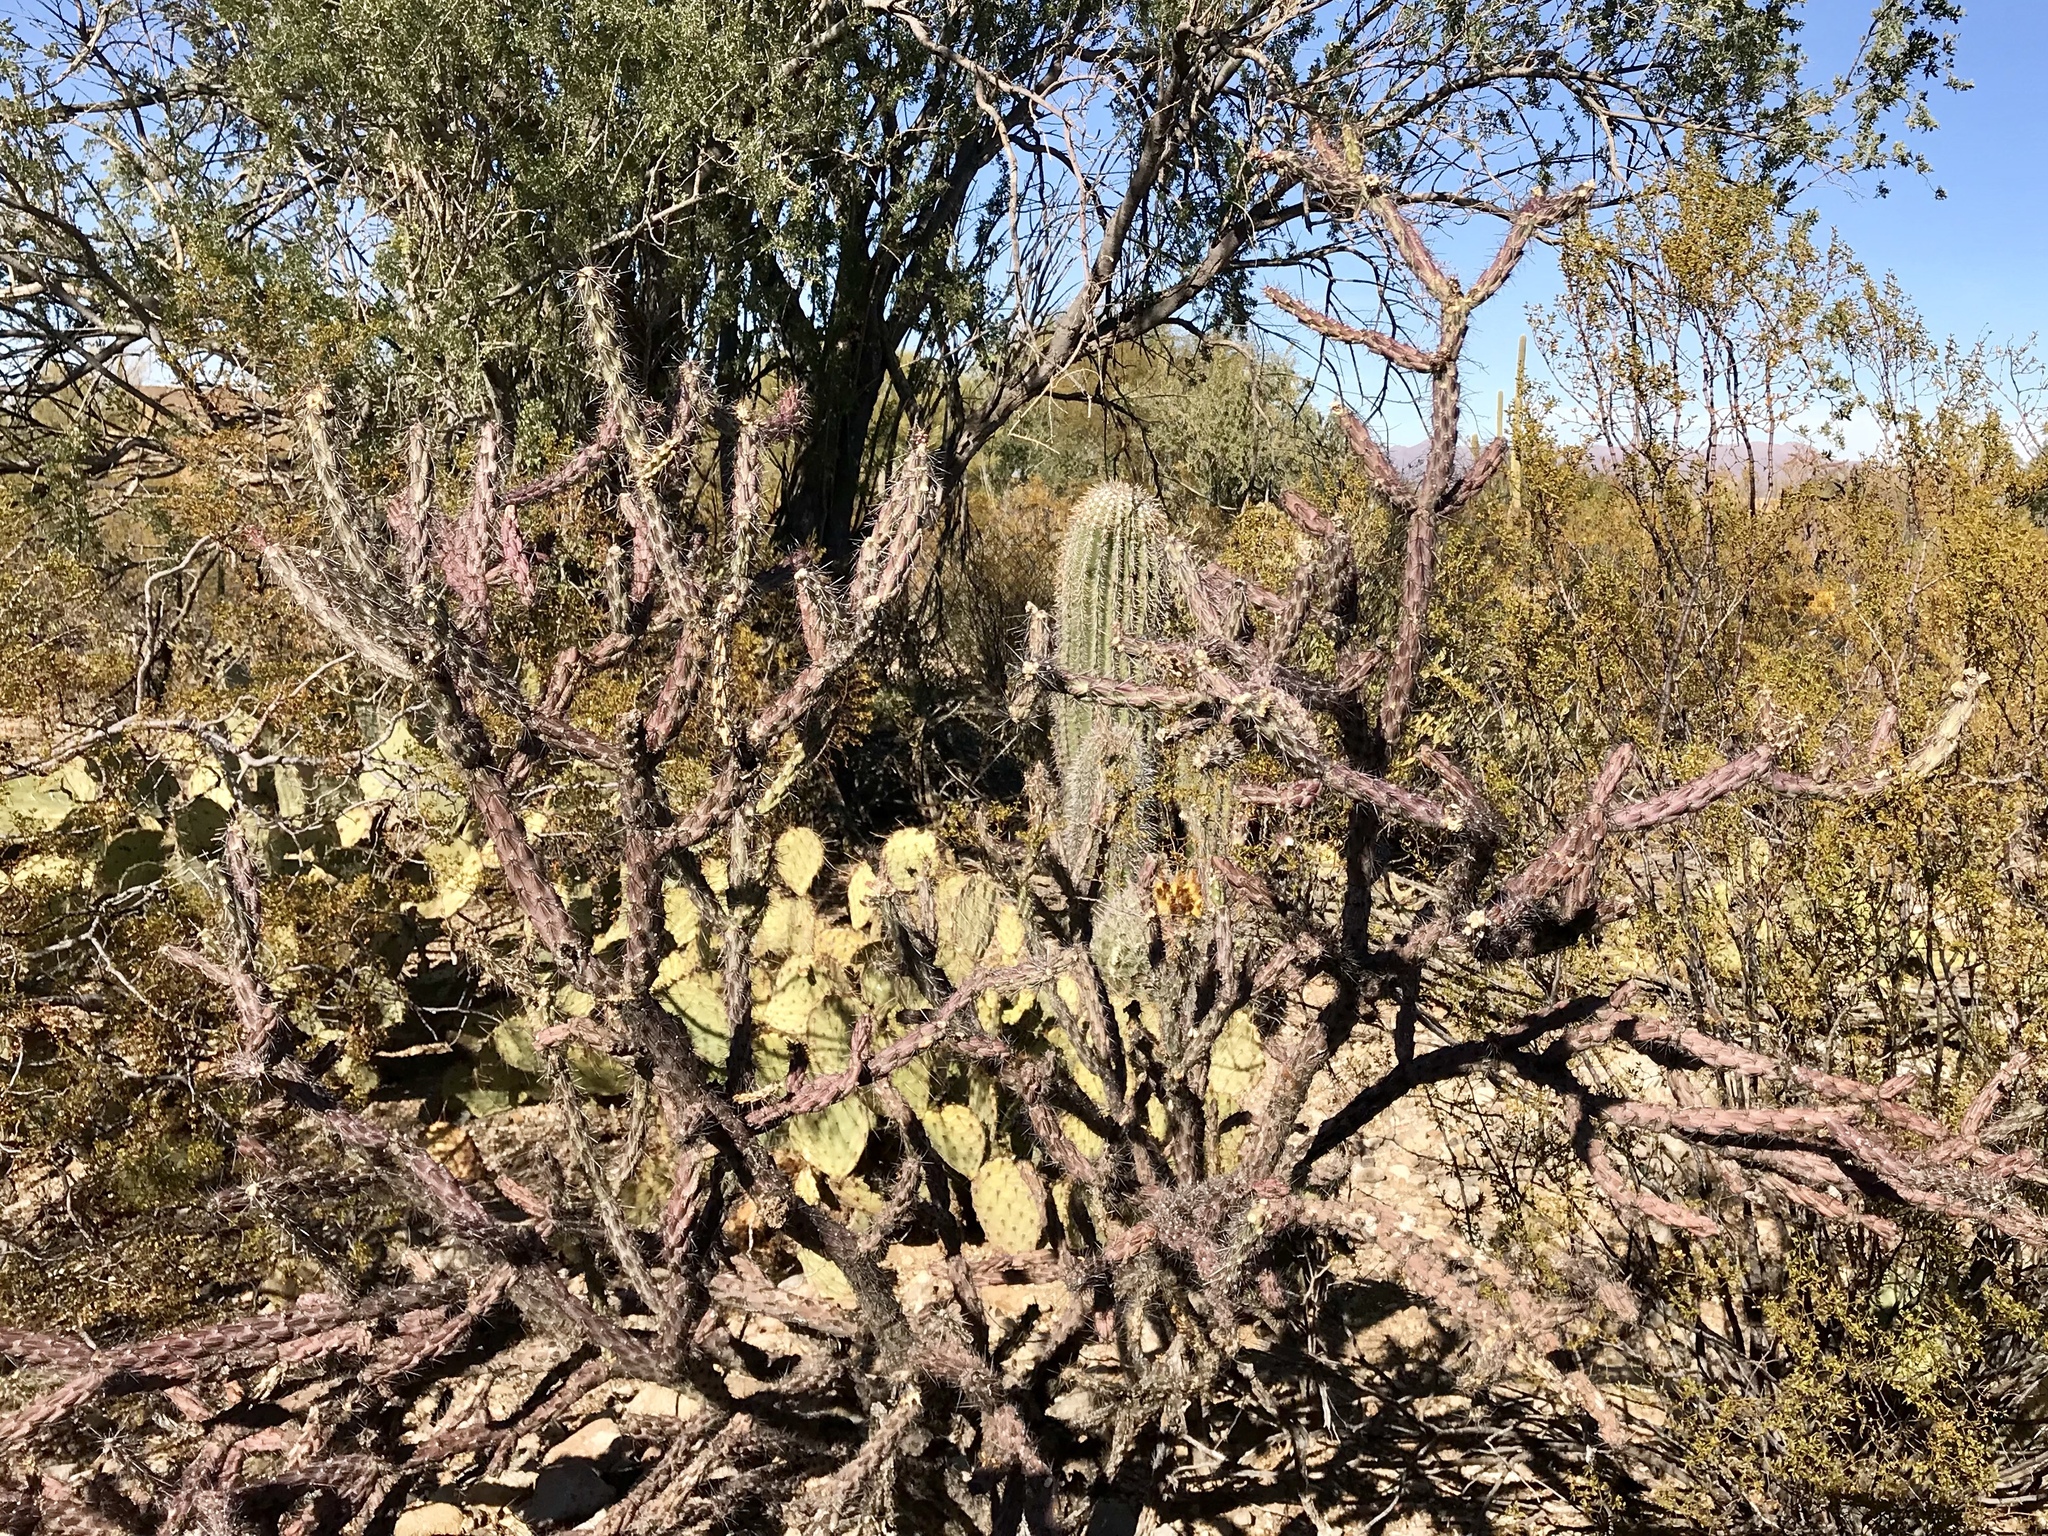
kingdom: Plantae
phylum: Tracheophyta
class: Magnoliopsida
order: Caryophyllales
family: Cactaceae
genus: Cylindropuntia
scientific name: Cylindropuntia thurberi
